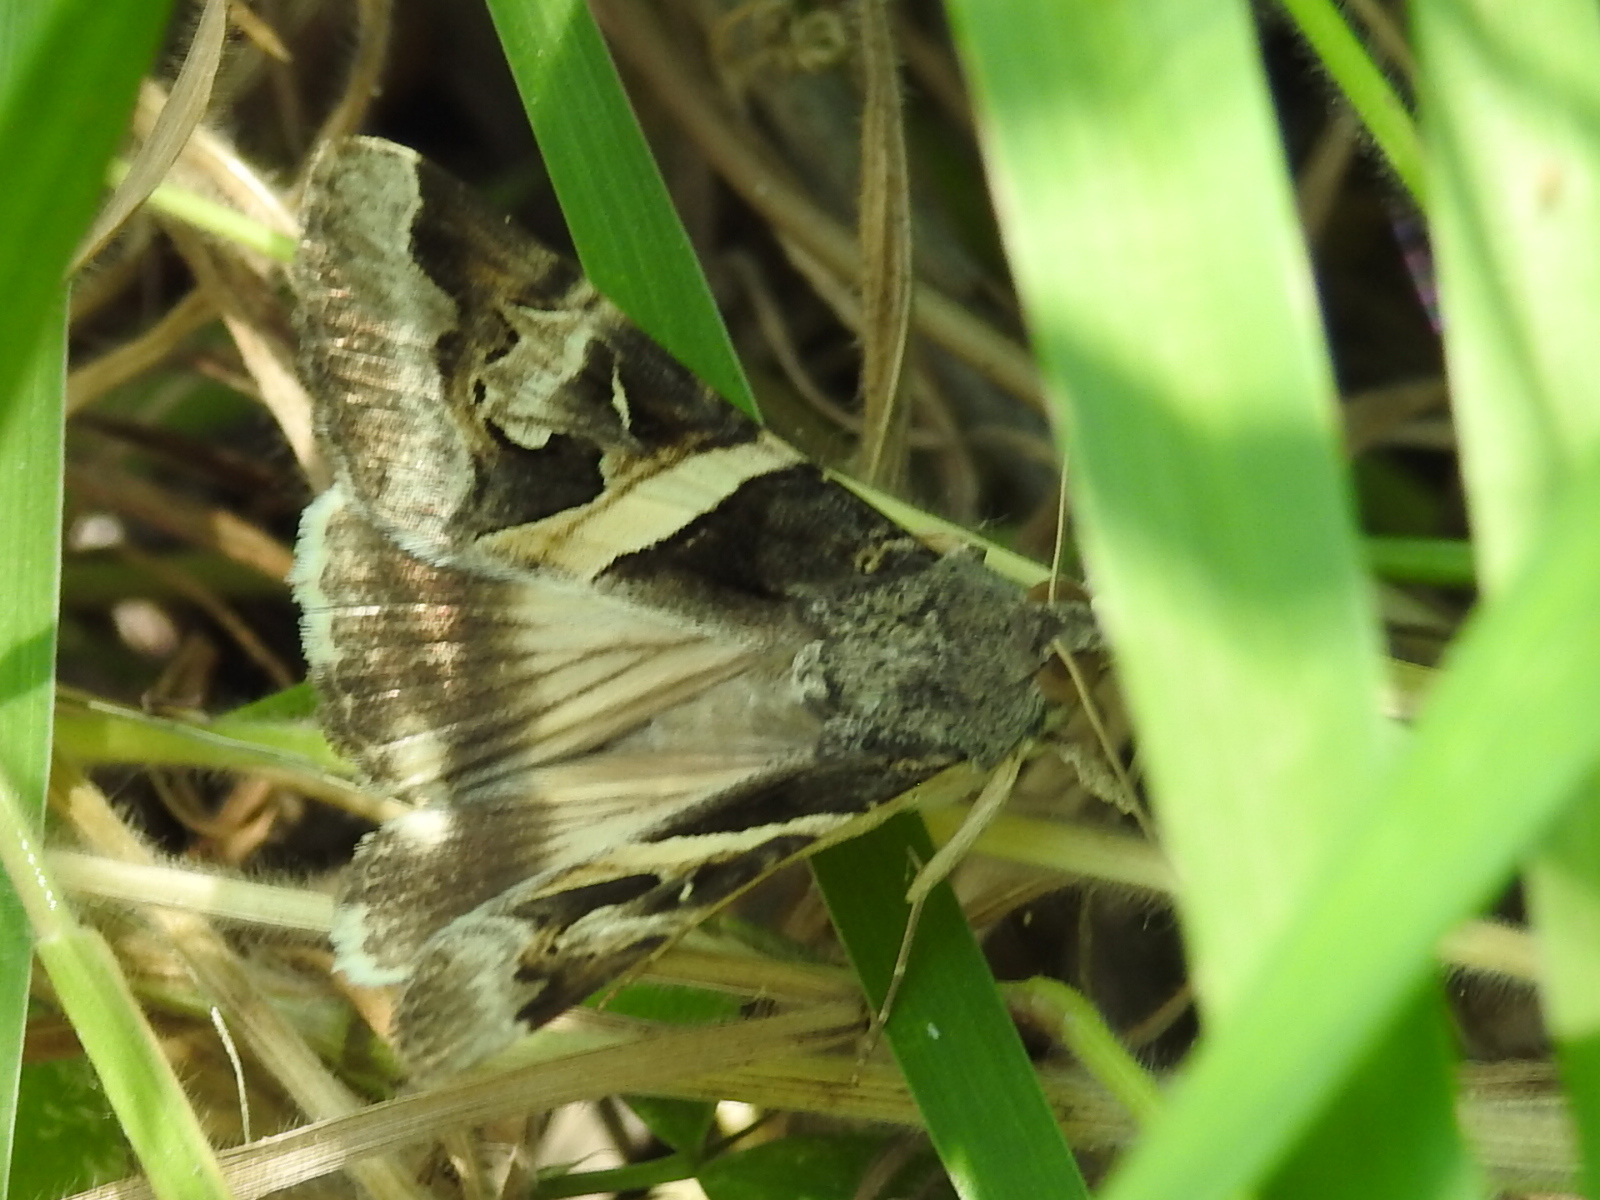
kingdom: Animalia
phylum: Arthropoda
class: Insecta
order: Lepidoptera
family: Erebidae
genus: Melipotis
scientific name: Melipotis indomita
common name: Moth
